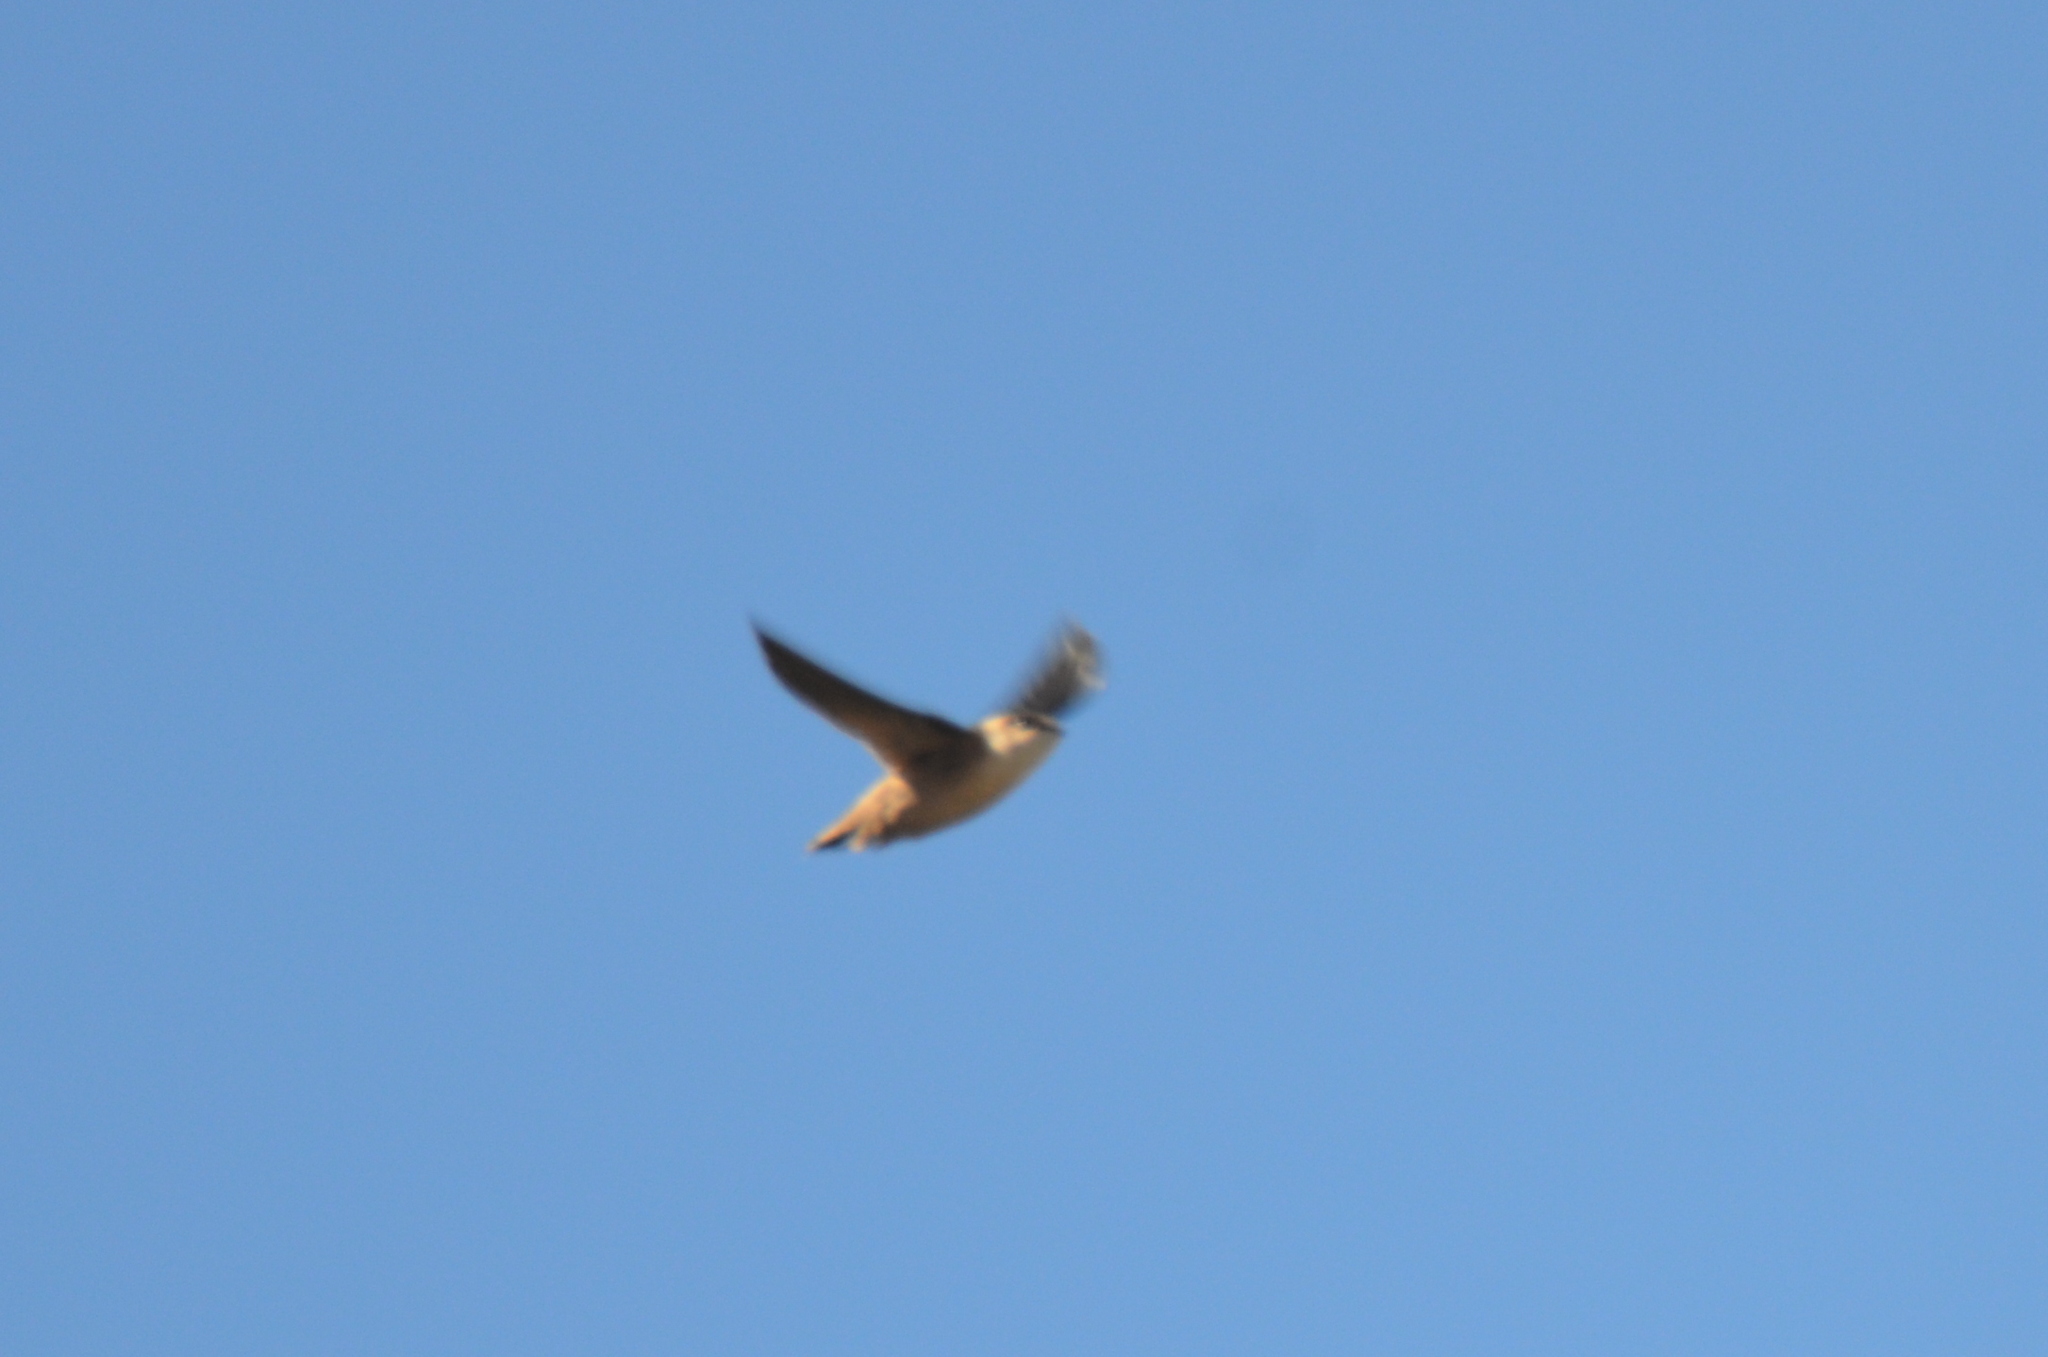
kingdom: Animalia
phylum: Chordata
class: Aves
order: Apodiformes
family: Apodidae
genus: Chaetura
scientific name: Chaetura vauxi
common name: Vaux's swift
